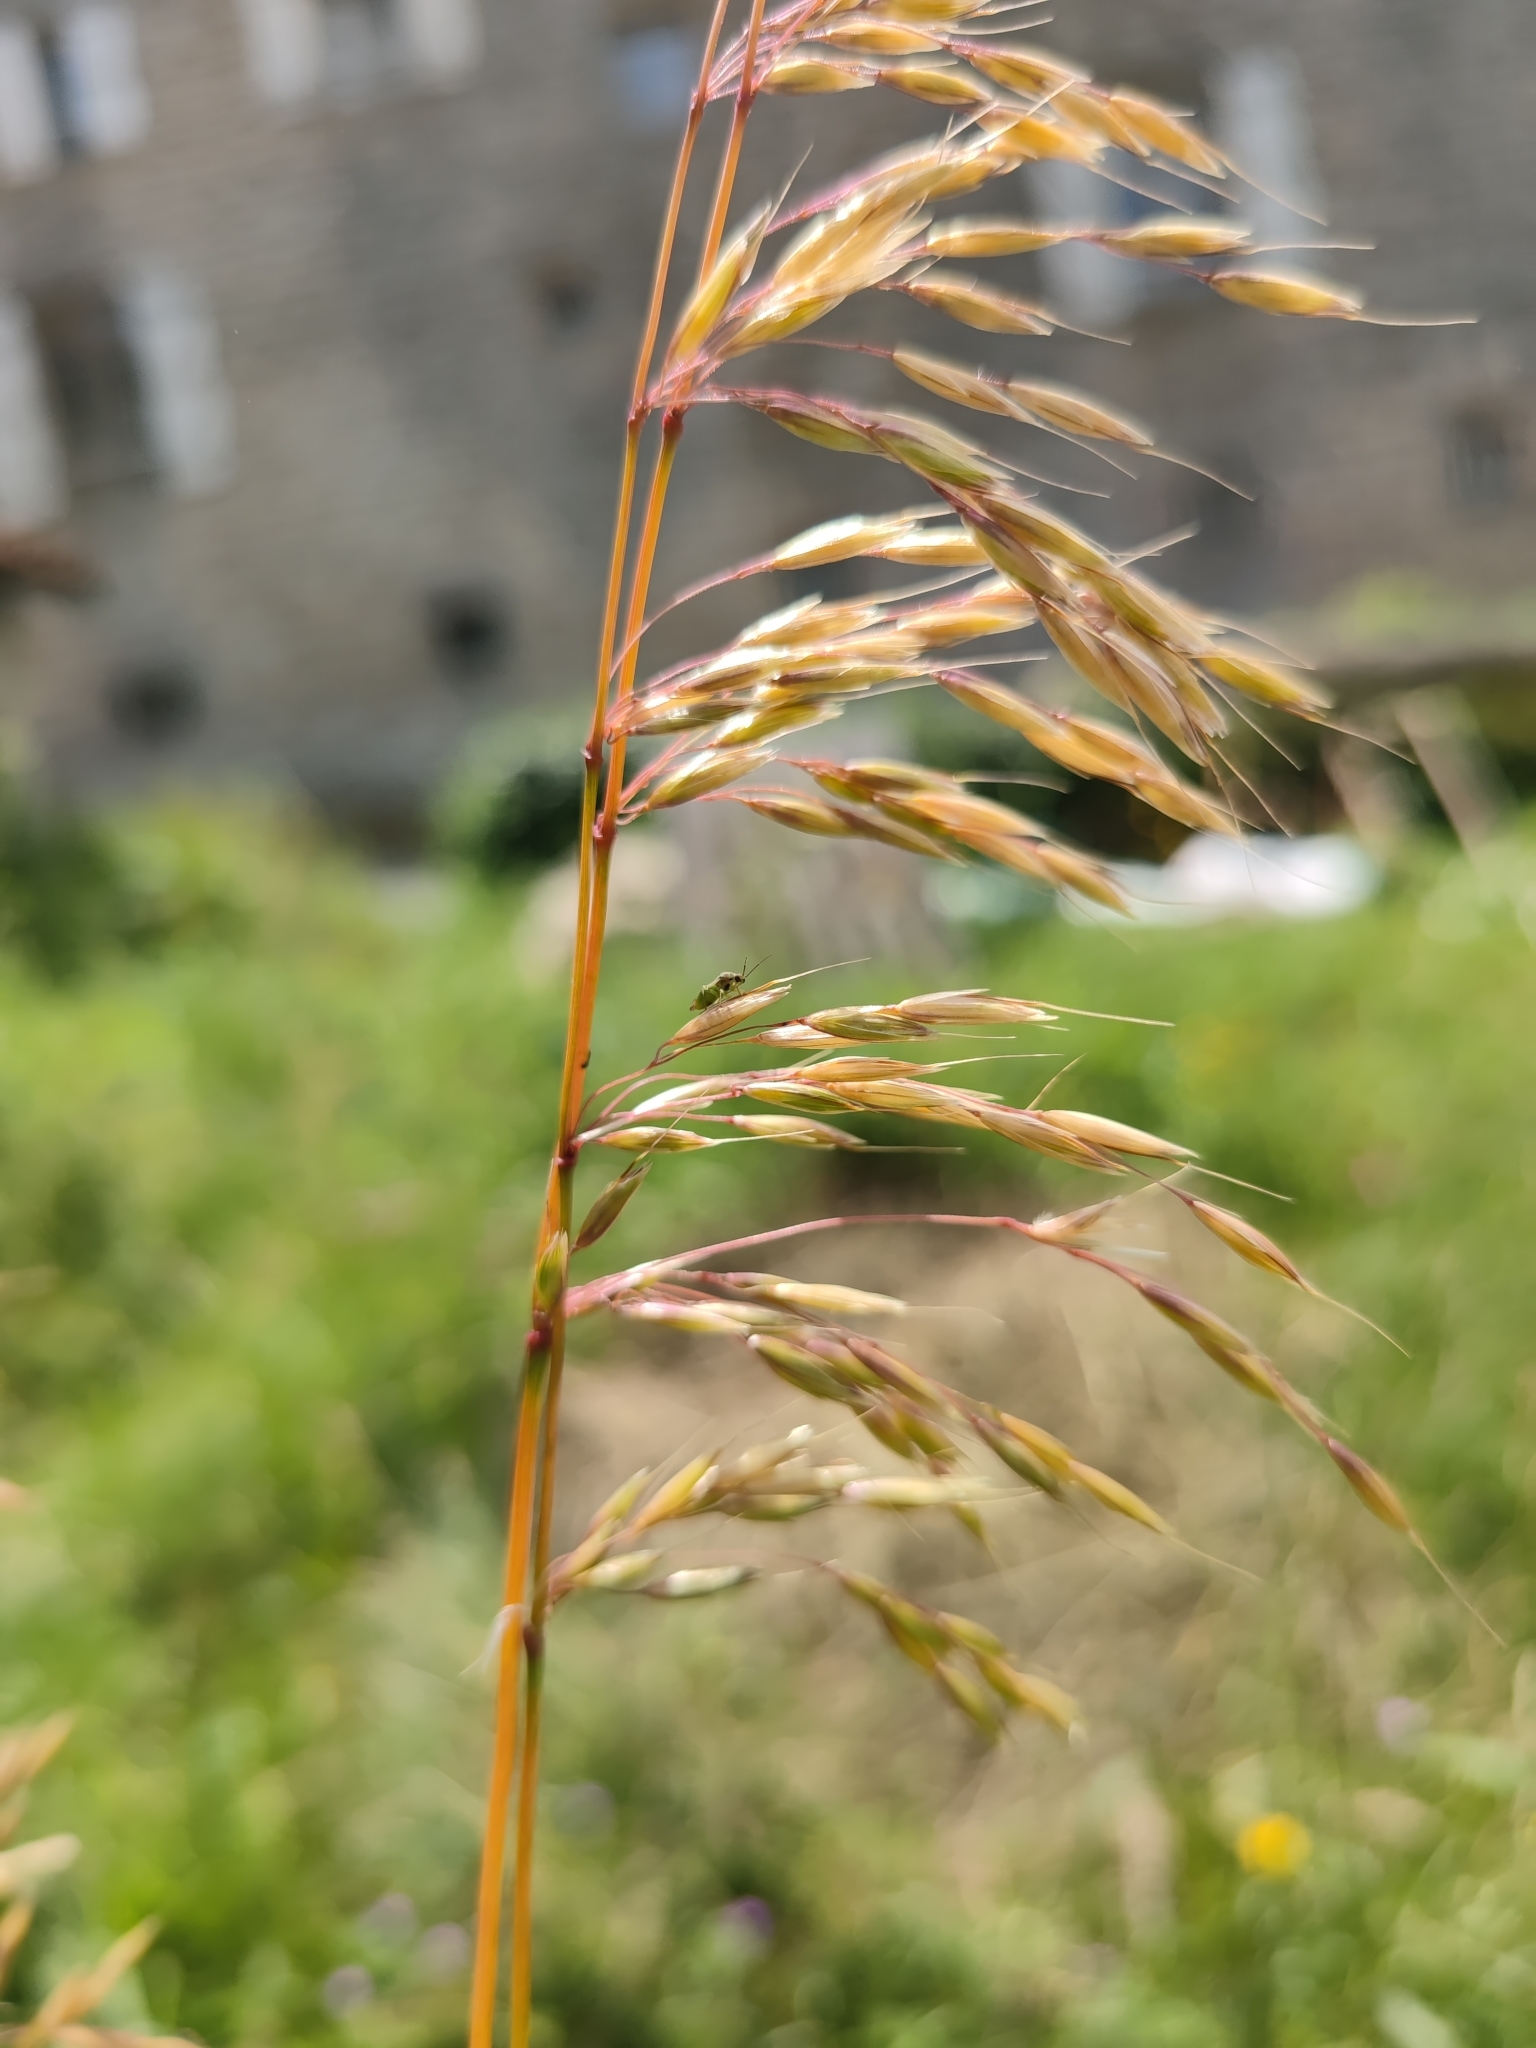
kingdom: Plantae
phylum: Tracheophyta
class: Liliopsida
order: Poales
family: Poaceae
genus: Arrhenatherum
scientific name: Arrhenatherum elatius
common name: Tall oatgrass
